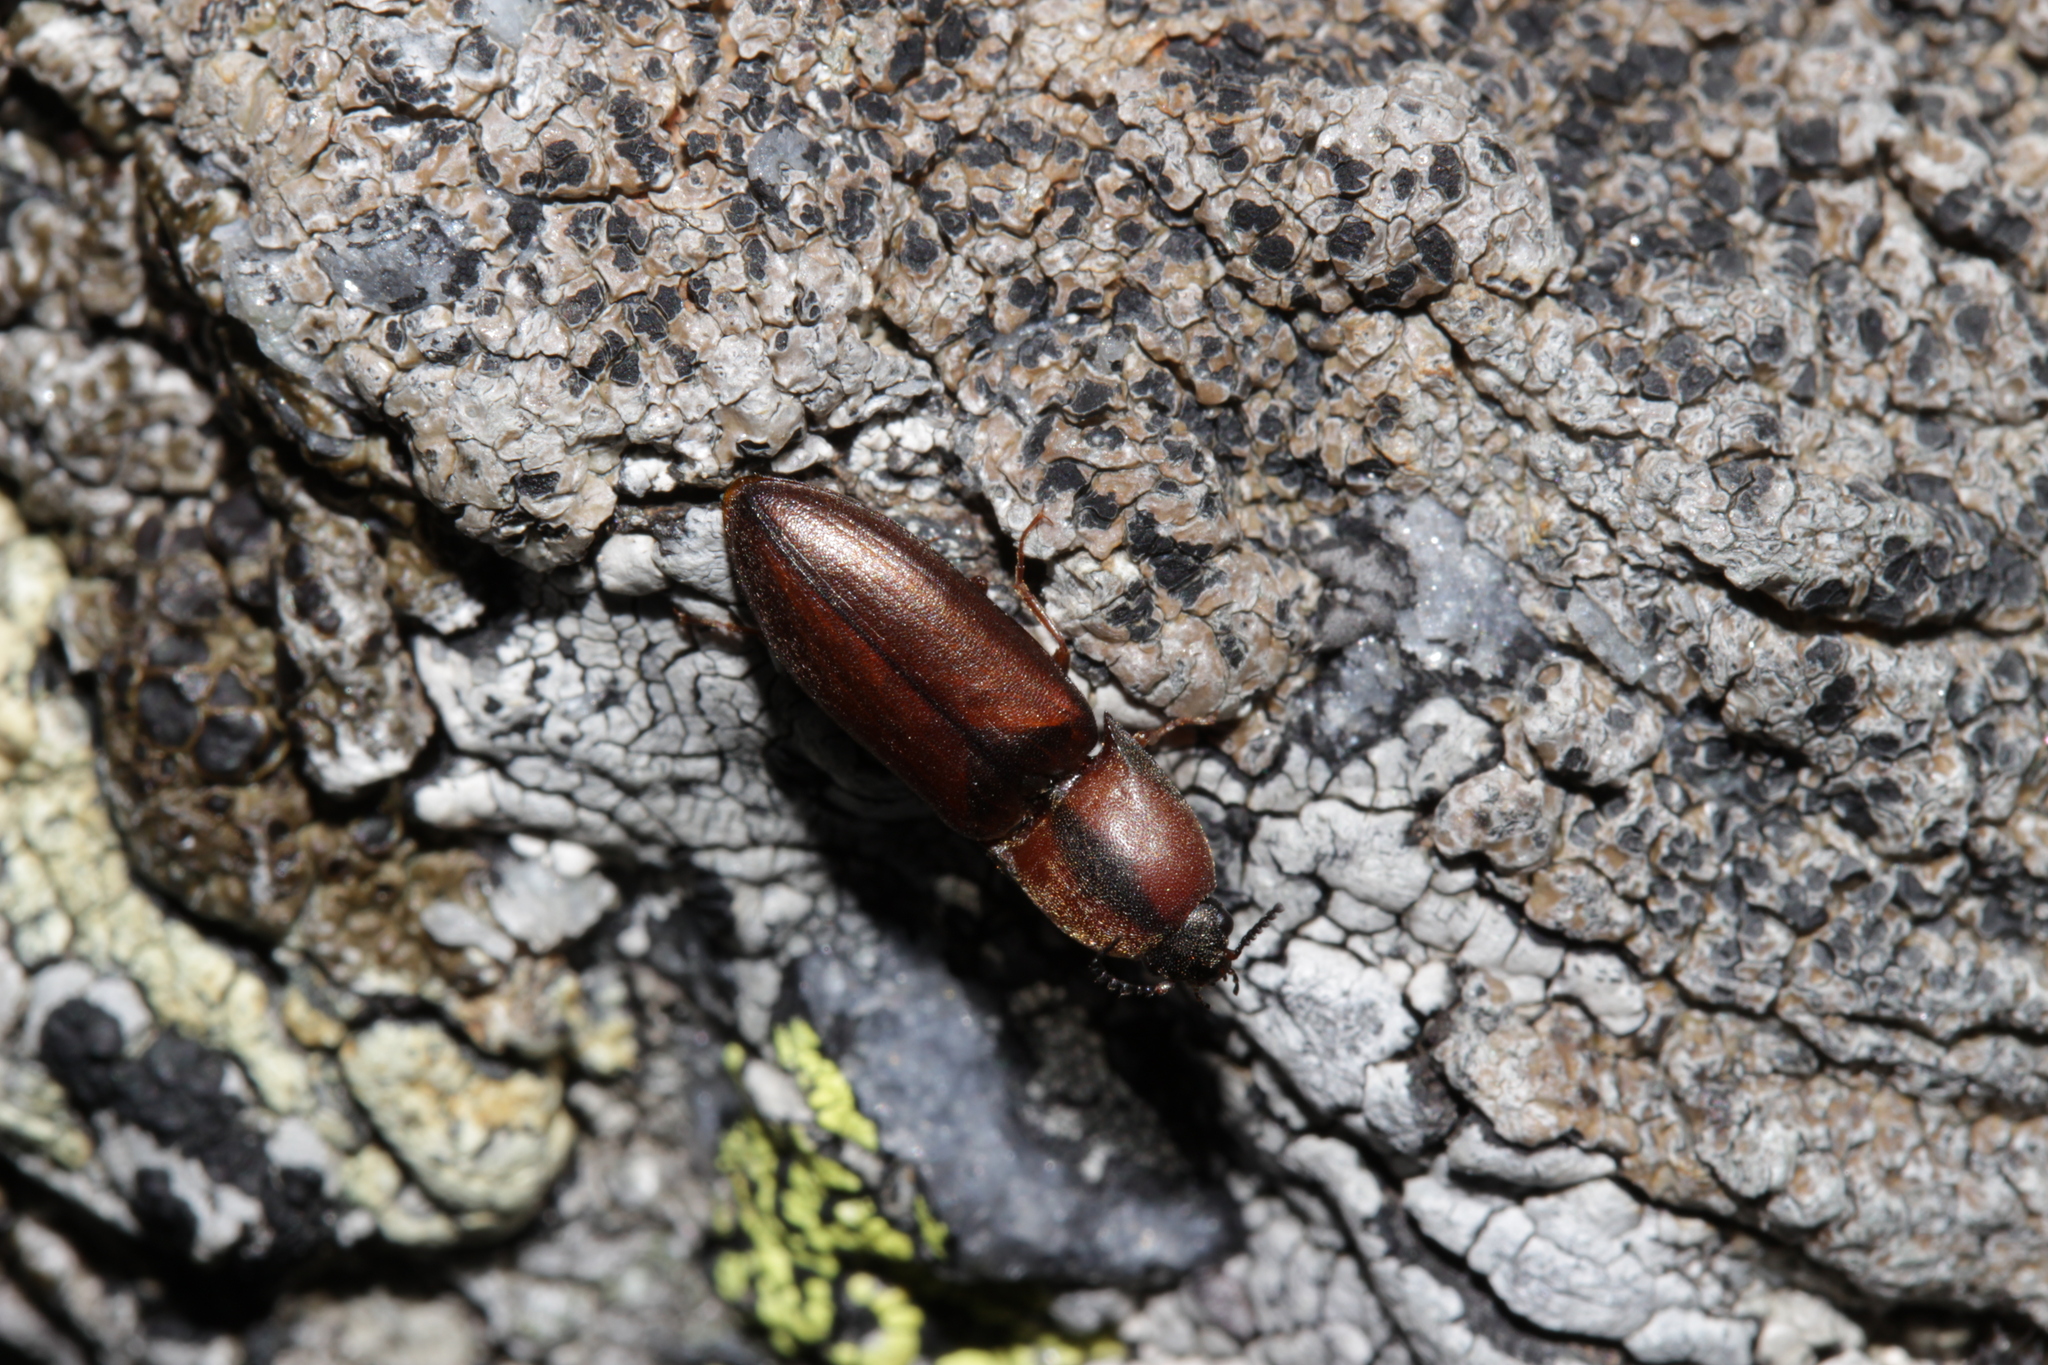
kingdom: Animalia
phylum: Arthropoda
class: Insecta
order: Coleoptera
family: Elateridae
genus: Sericus
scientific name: Sericus brunneus
